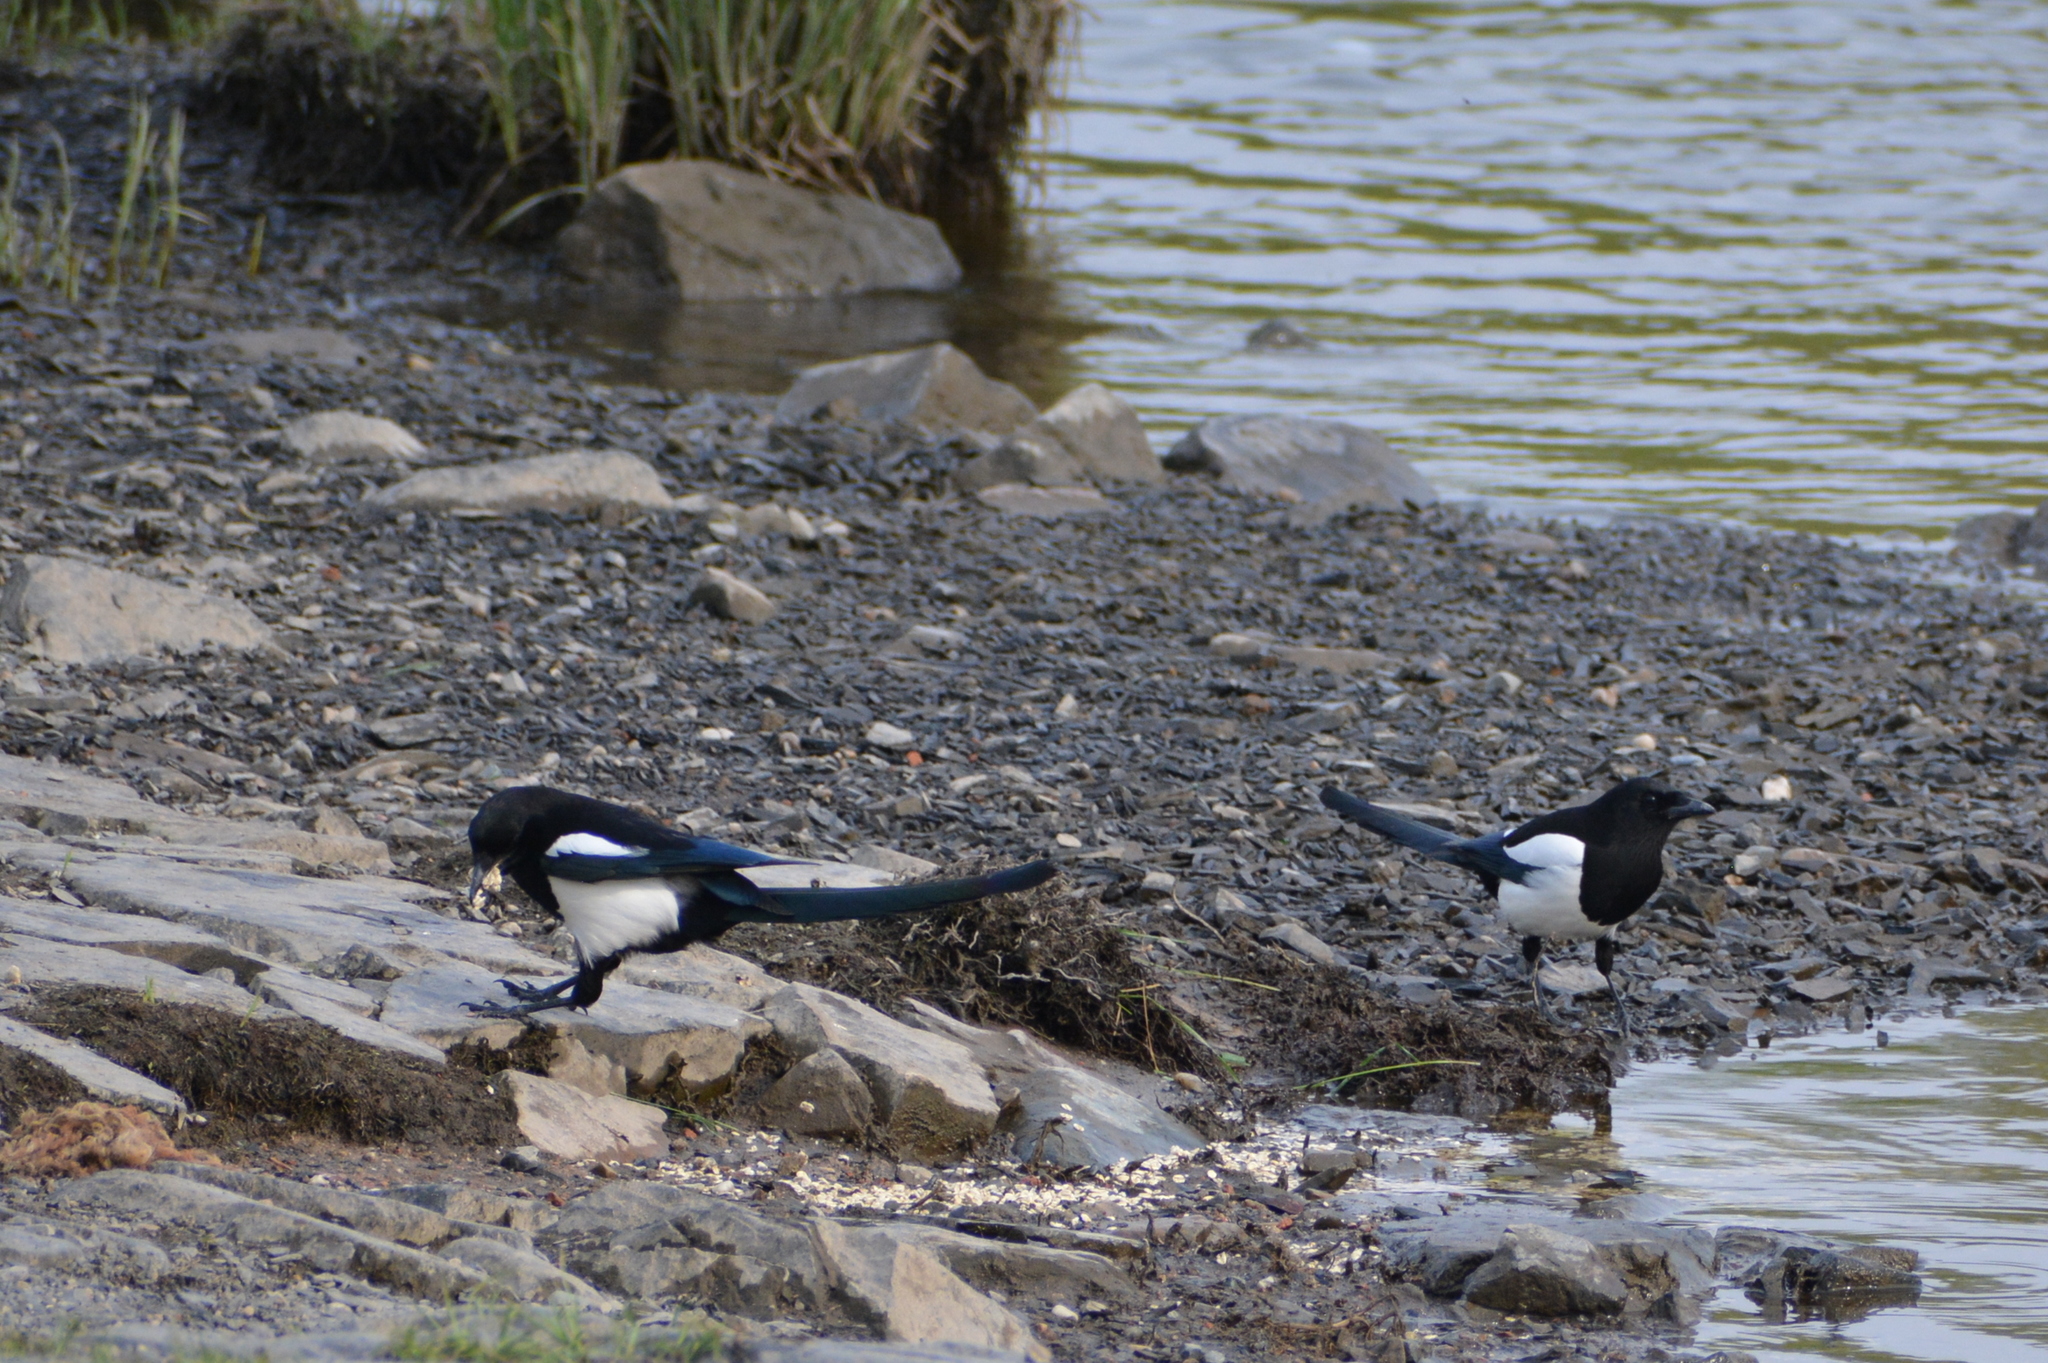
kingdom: Animalia
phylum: Chordata
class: Aves
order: Passeriformes
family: Corvidae
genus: Pica
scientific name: Pica pica
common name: Eurasian magpie
